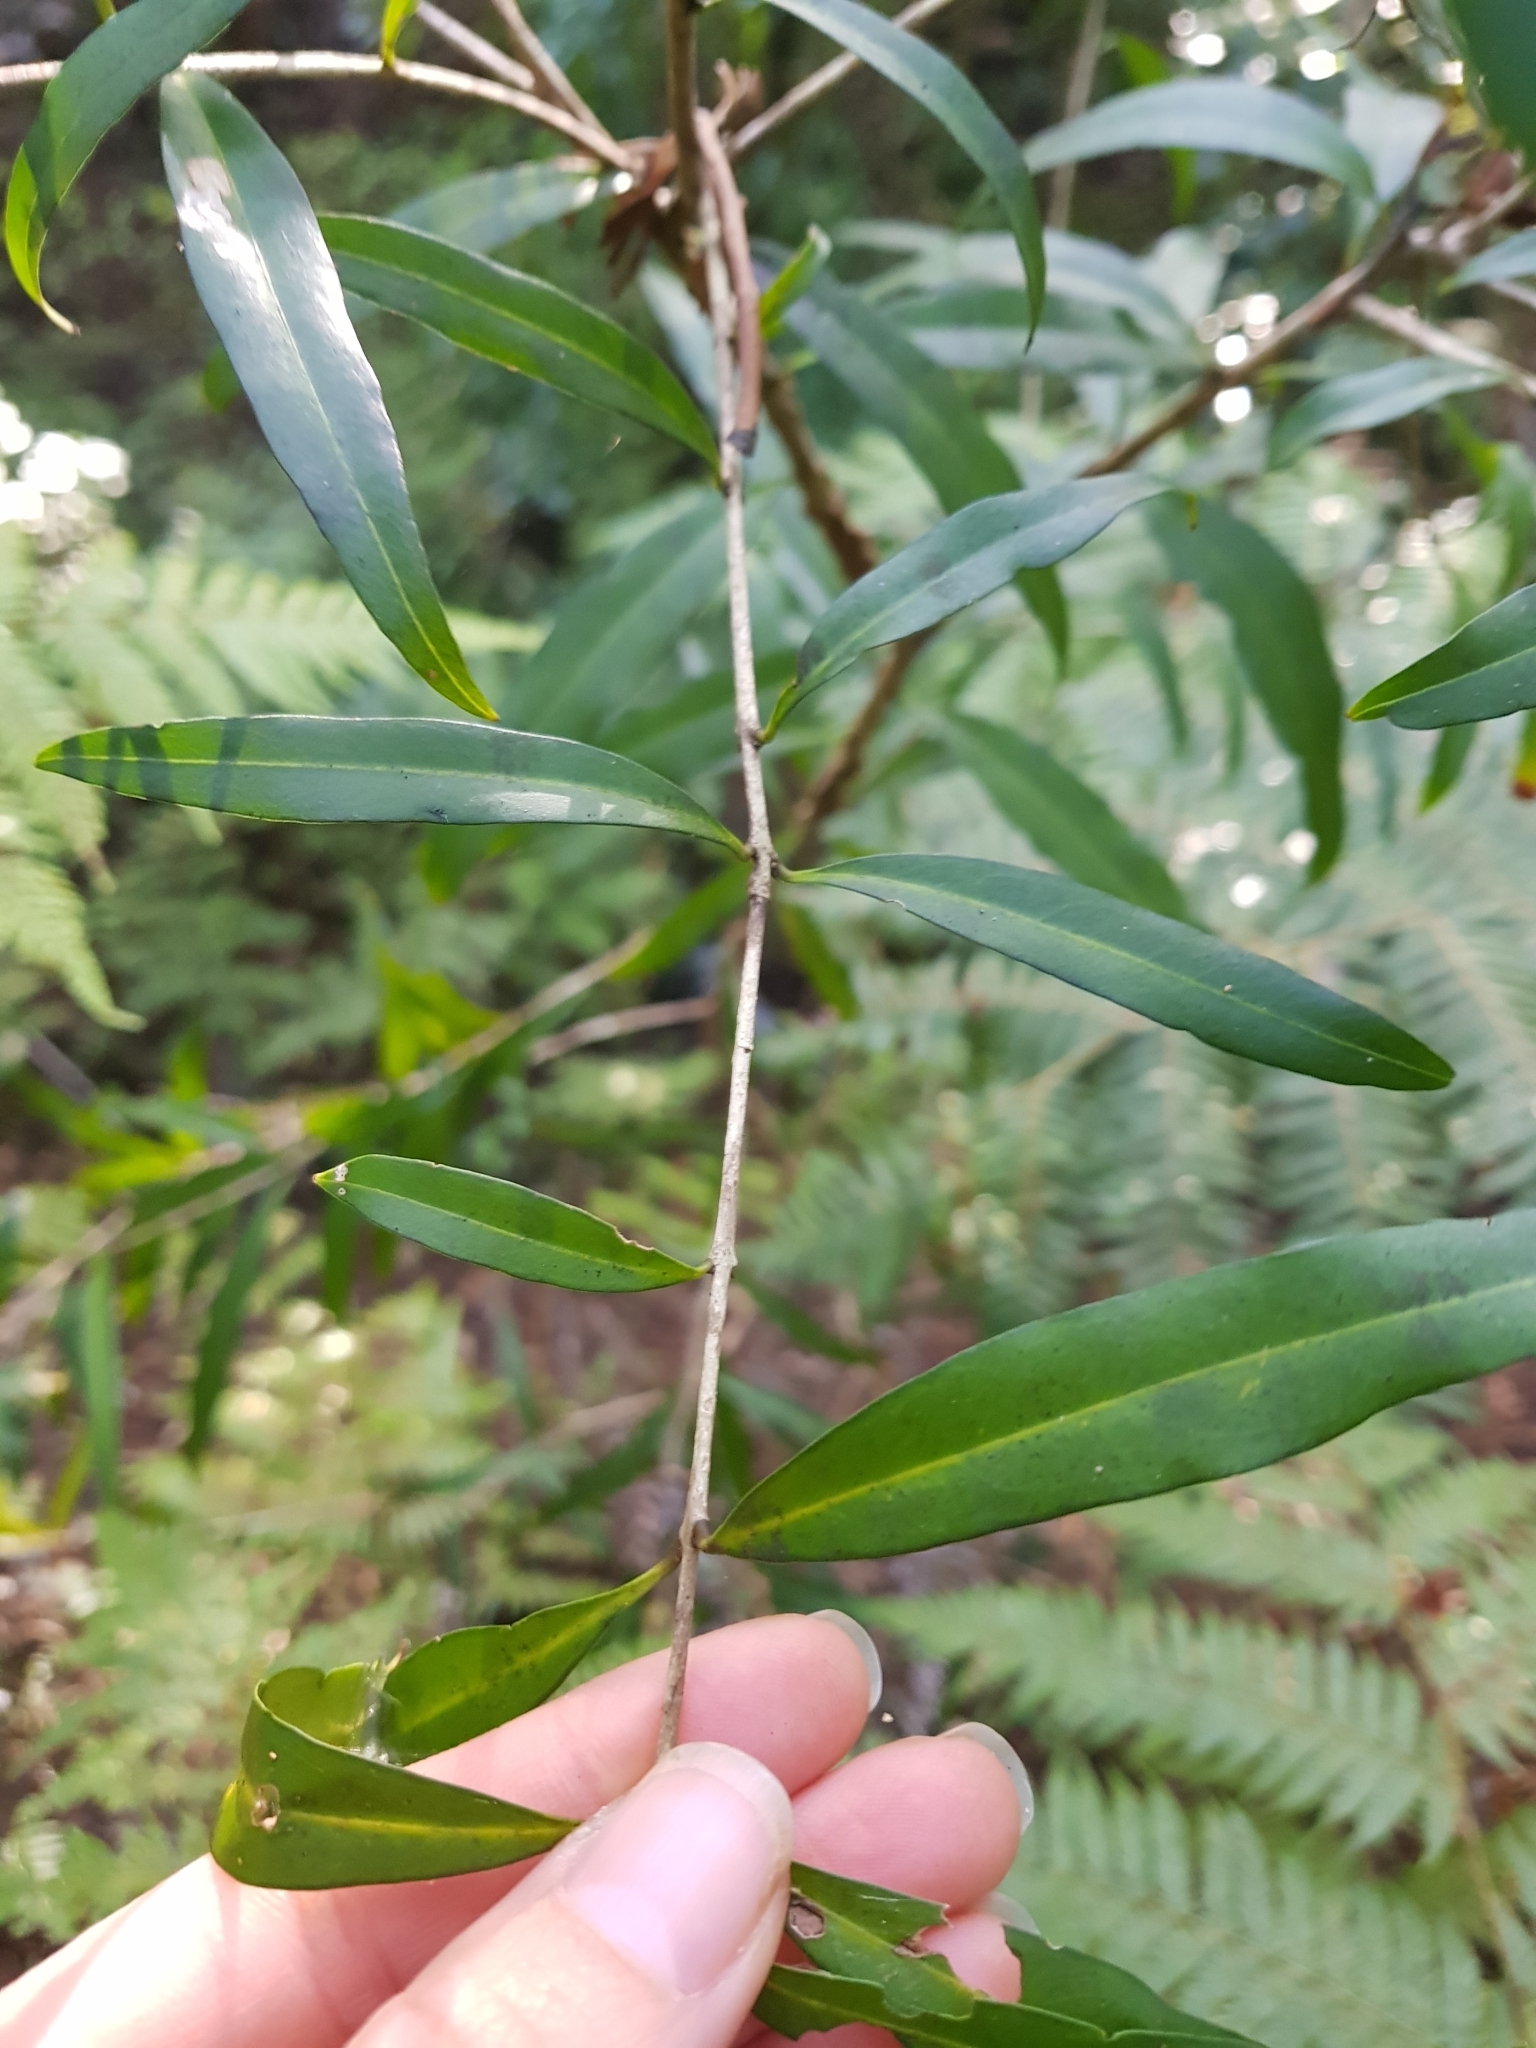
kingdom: Plantae
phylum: Tracheophyta
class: Magnoliopsida
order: Lamiales
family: Oleaceae
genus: Nestegis
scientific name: Nestegis lanceolata
